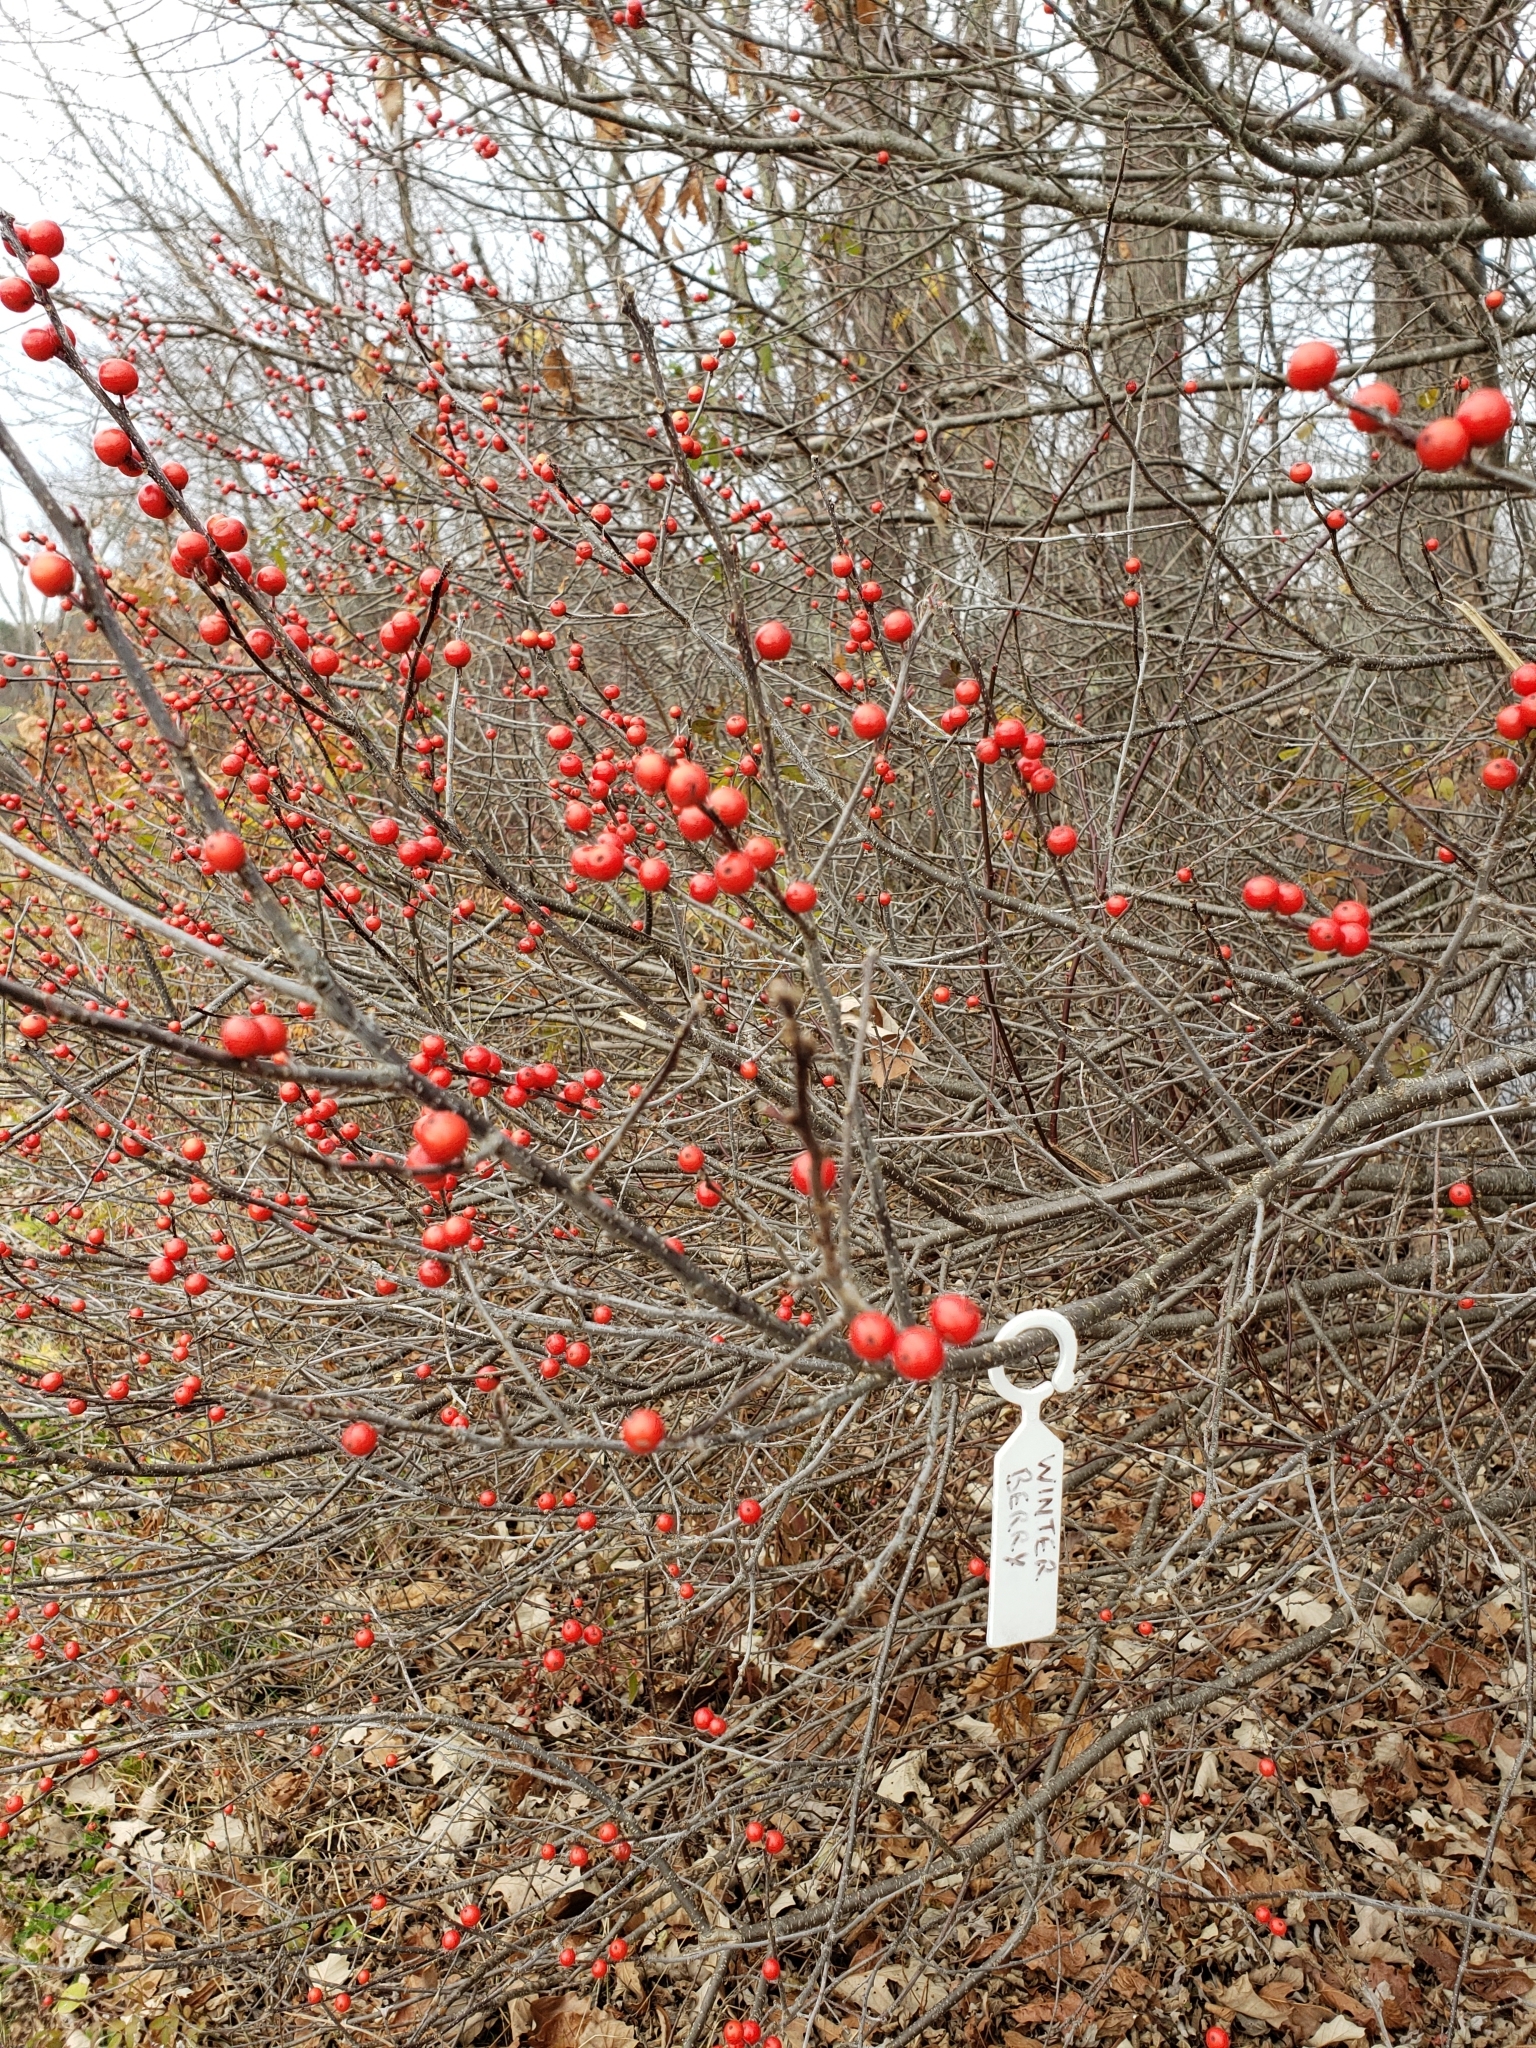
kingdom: Plantae
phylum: Tracheophyta
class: Magnoliopsida
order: Aquifoliales
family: Aquifoliaceae
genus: Ilex
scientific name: Ilex verticillata
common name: Virginia winterberry
